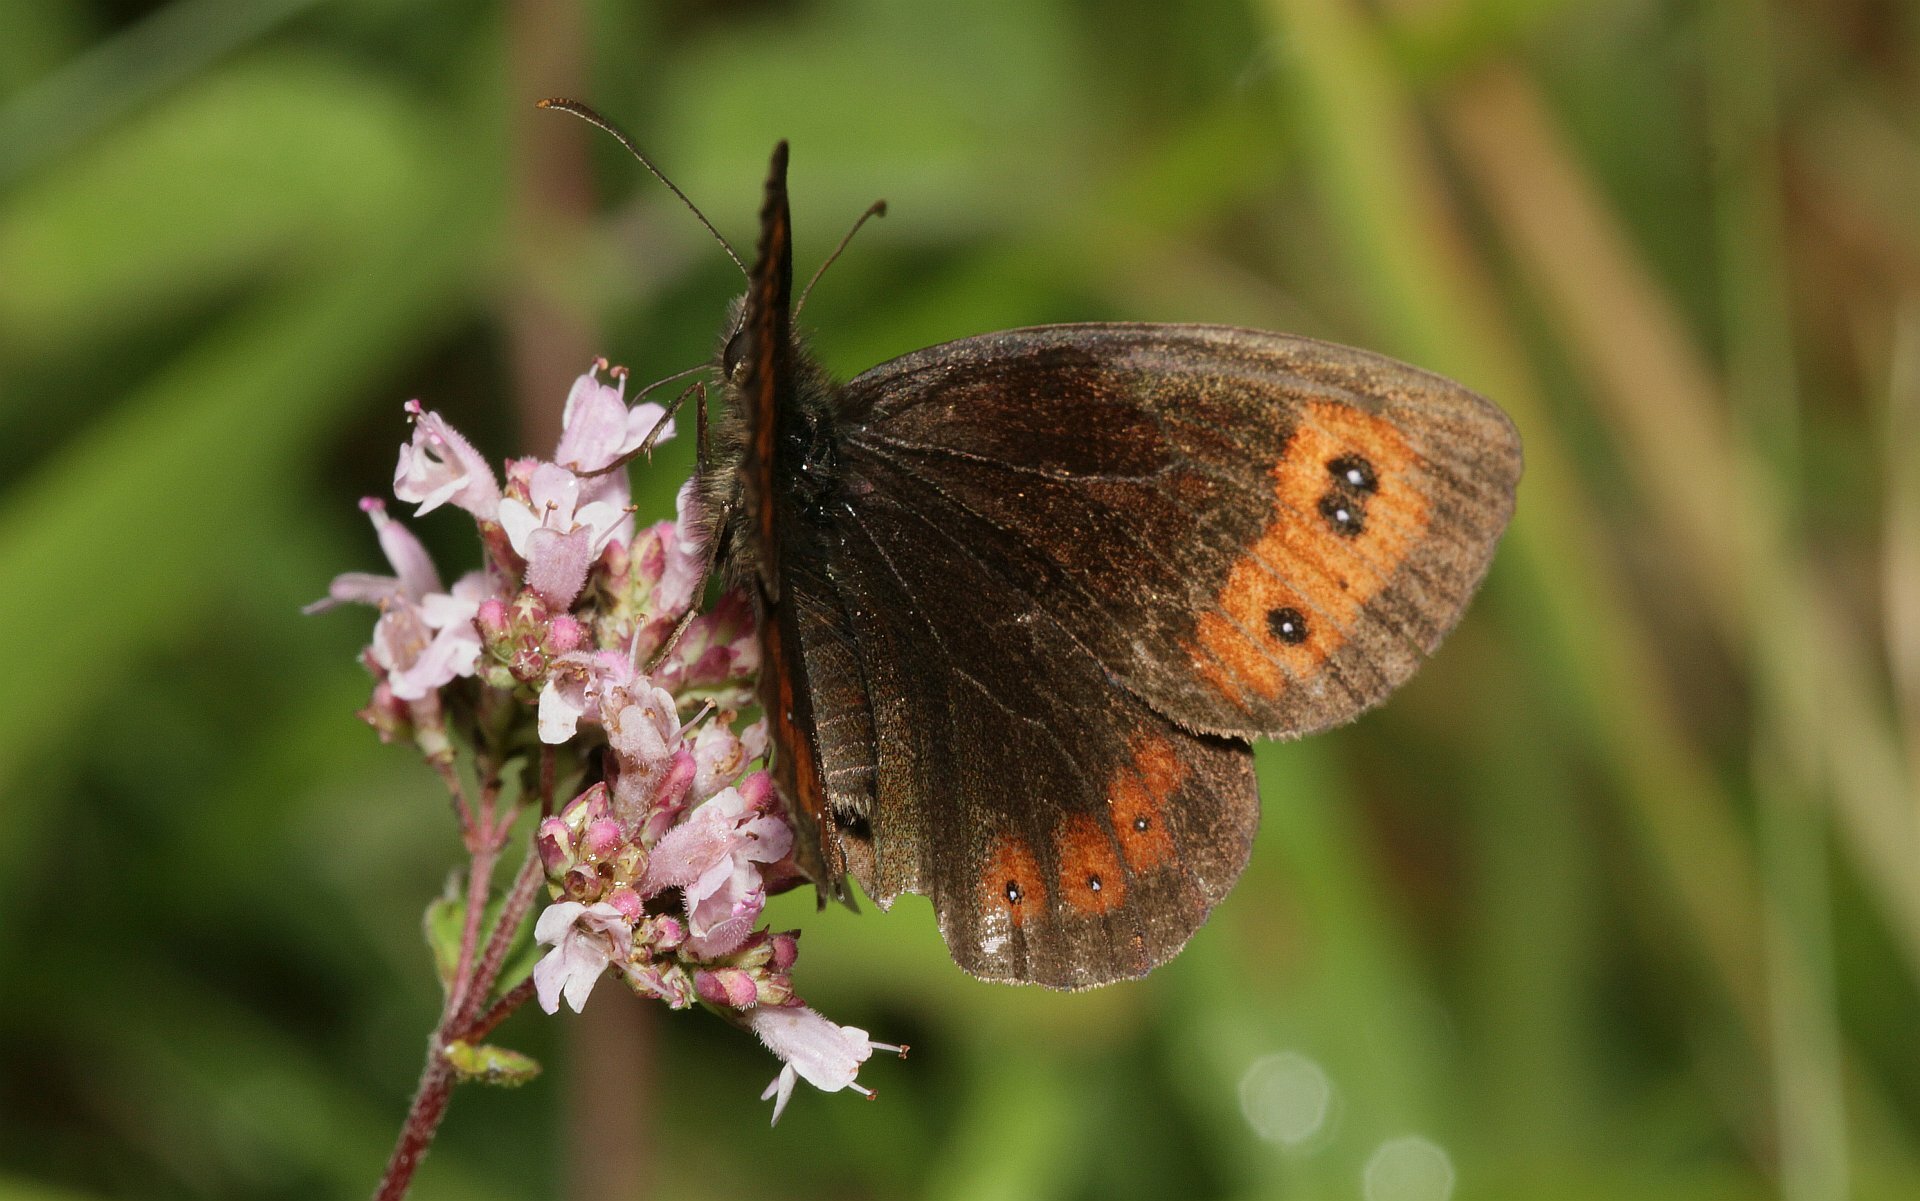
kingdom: Animalia
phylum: Arthropoda
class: Insecta
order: Lepidoptera
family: Nymphalidae
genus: Erebia
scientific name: Erebia aethiops
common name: Scotch argus
